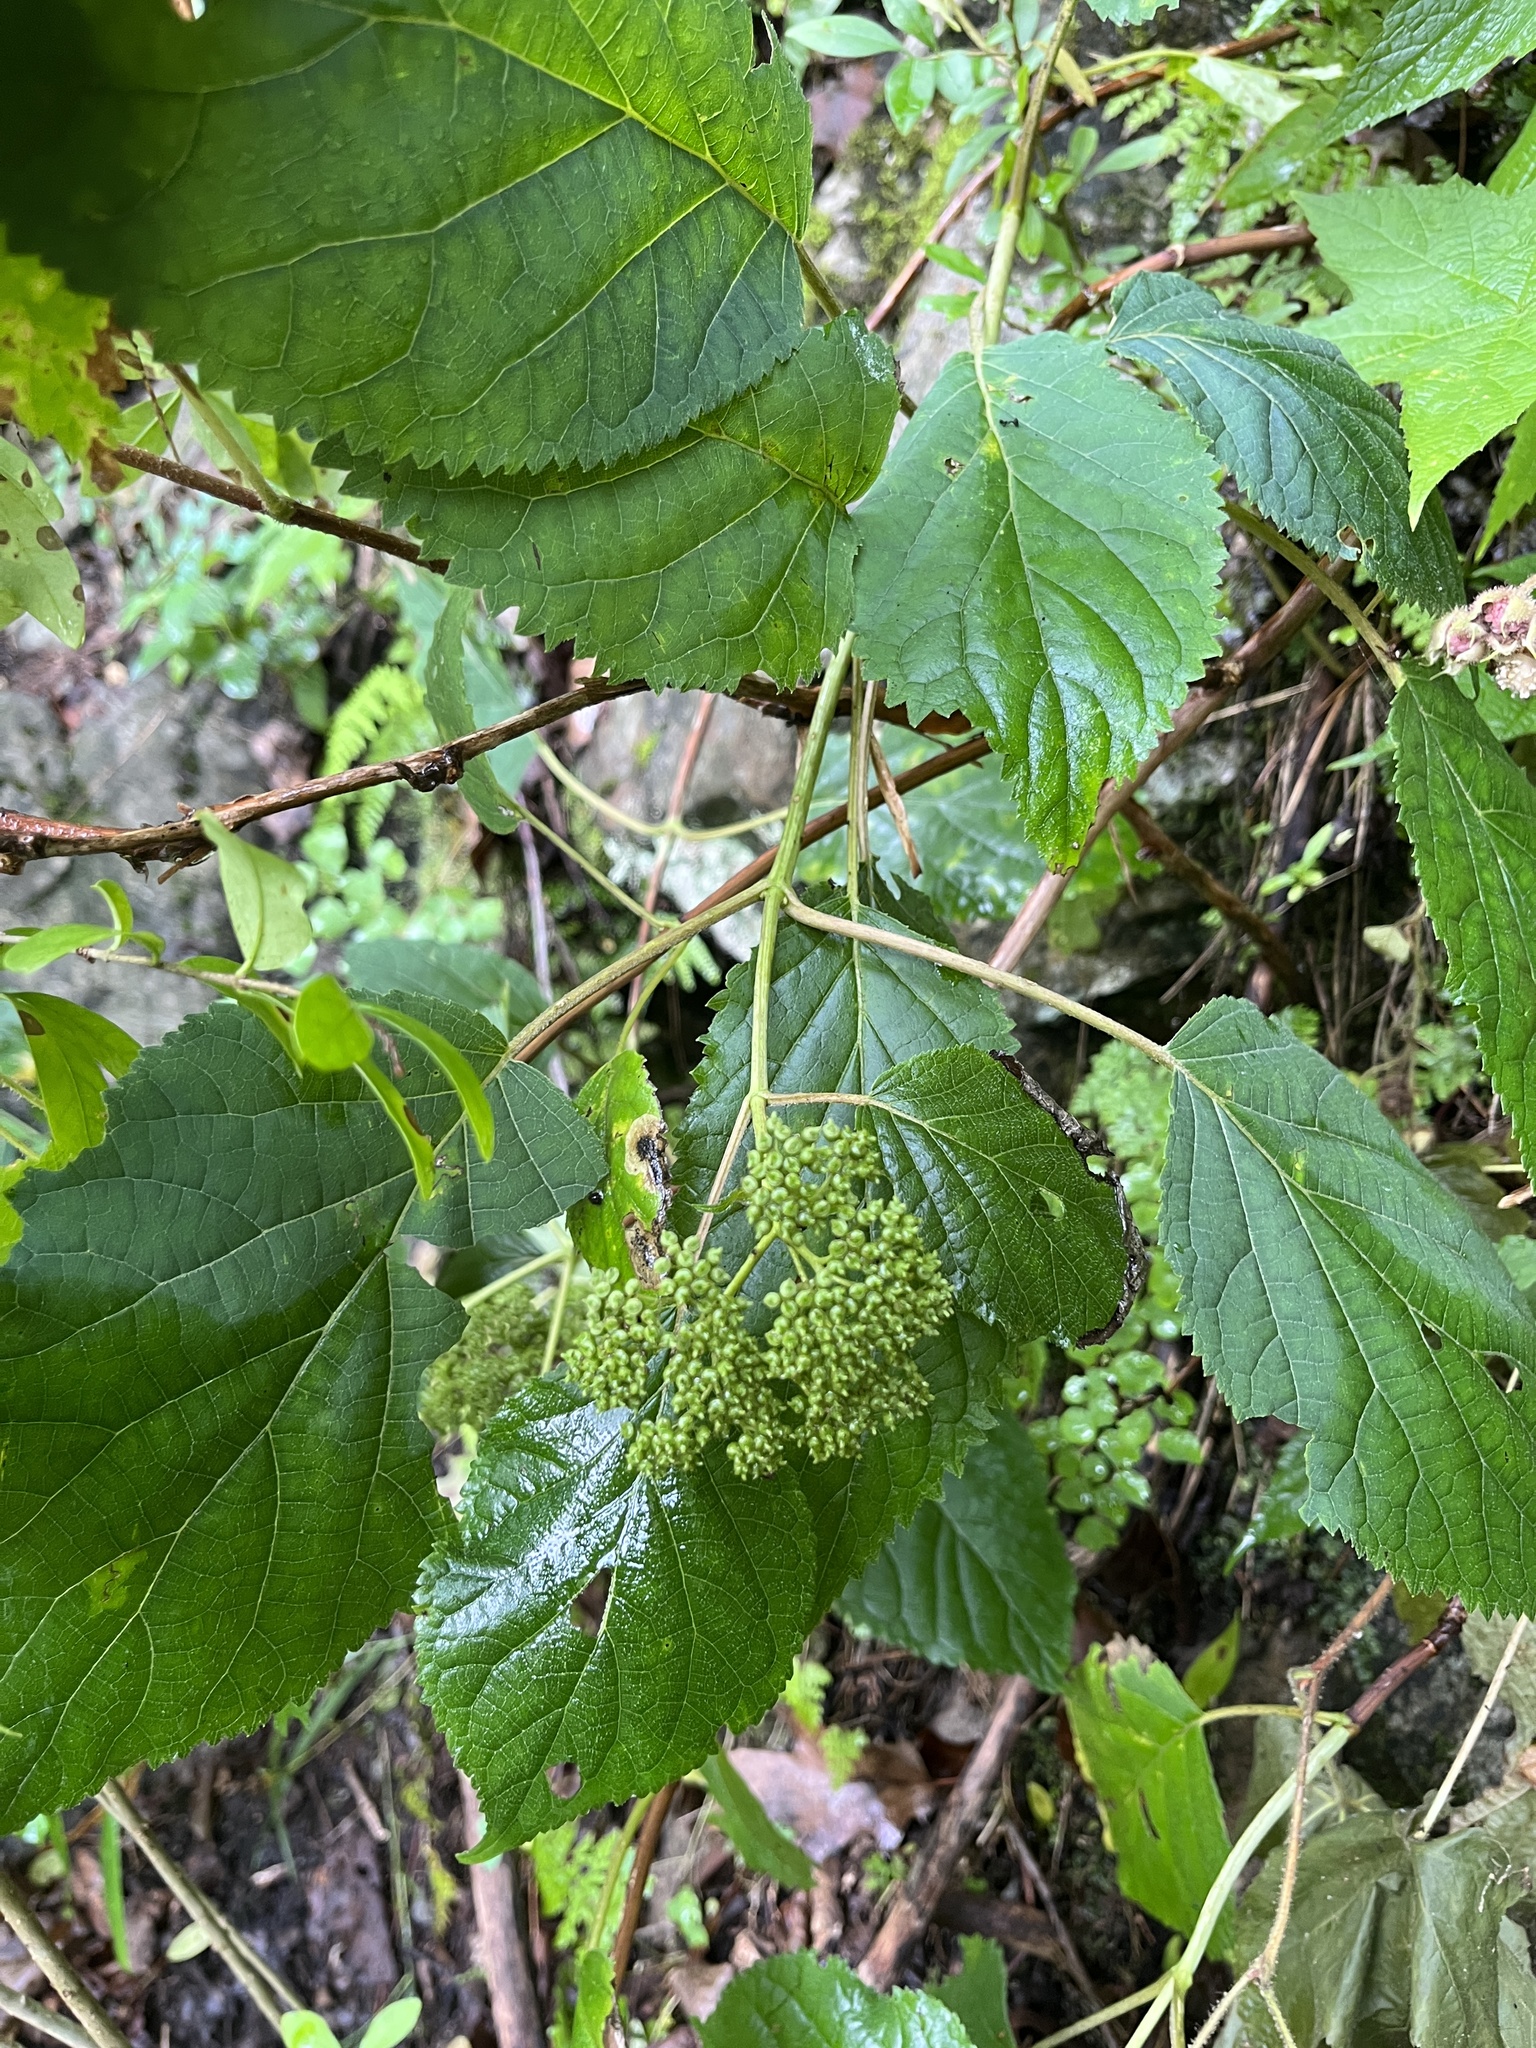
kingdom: Plantae
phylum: Tracheophyta
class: Magnoliopsida
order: Cornales
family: Hydrangeaceae
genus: Hydrangea
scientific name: Hydrangea arborescens
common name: Sevenbark
